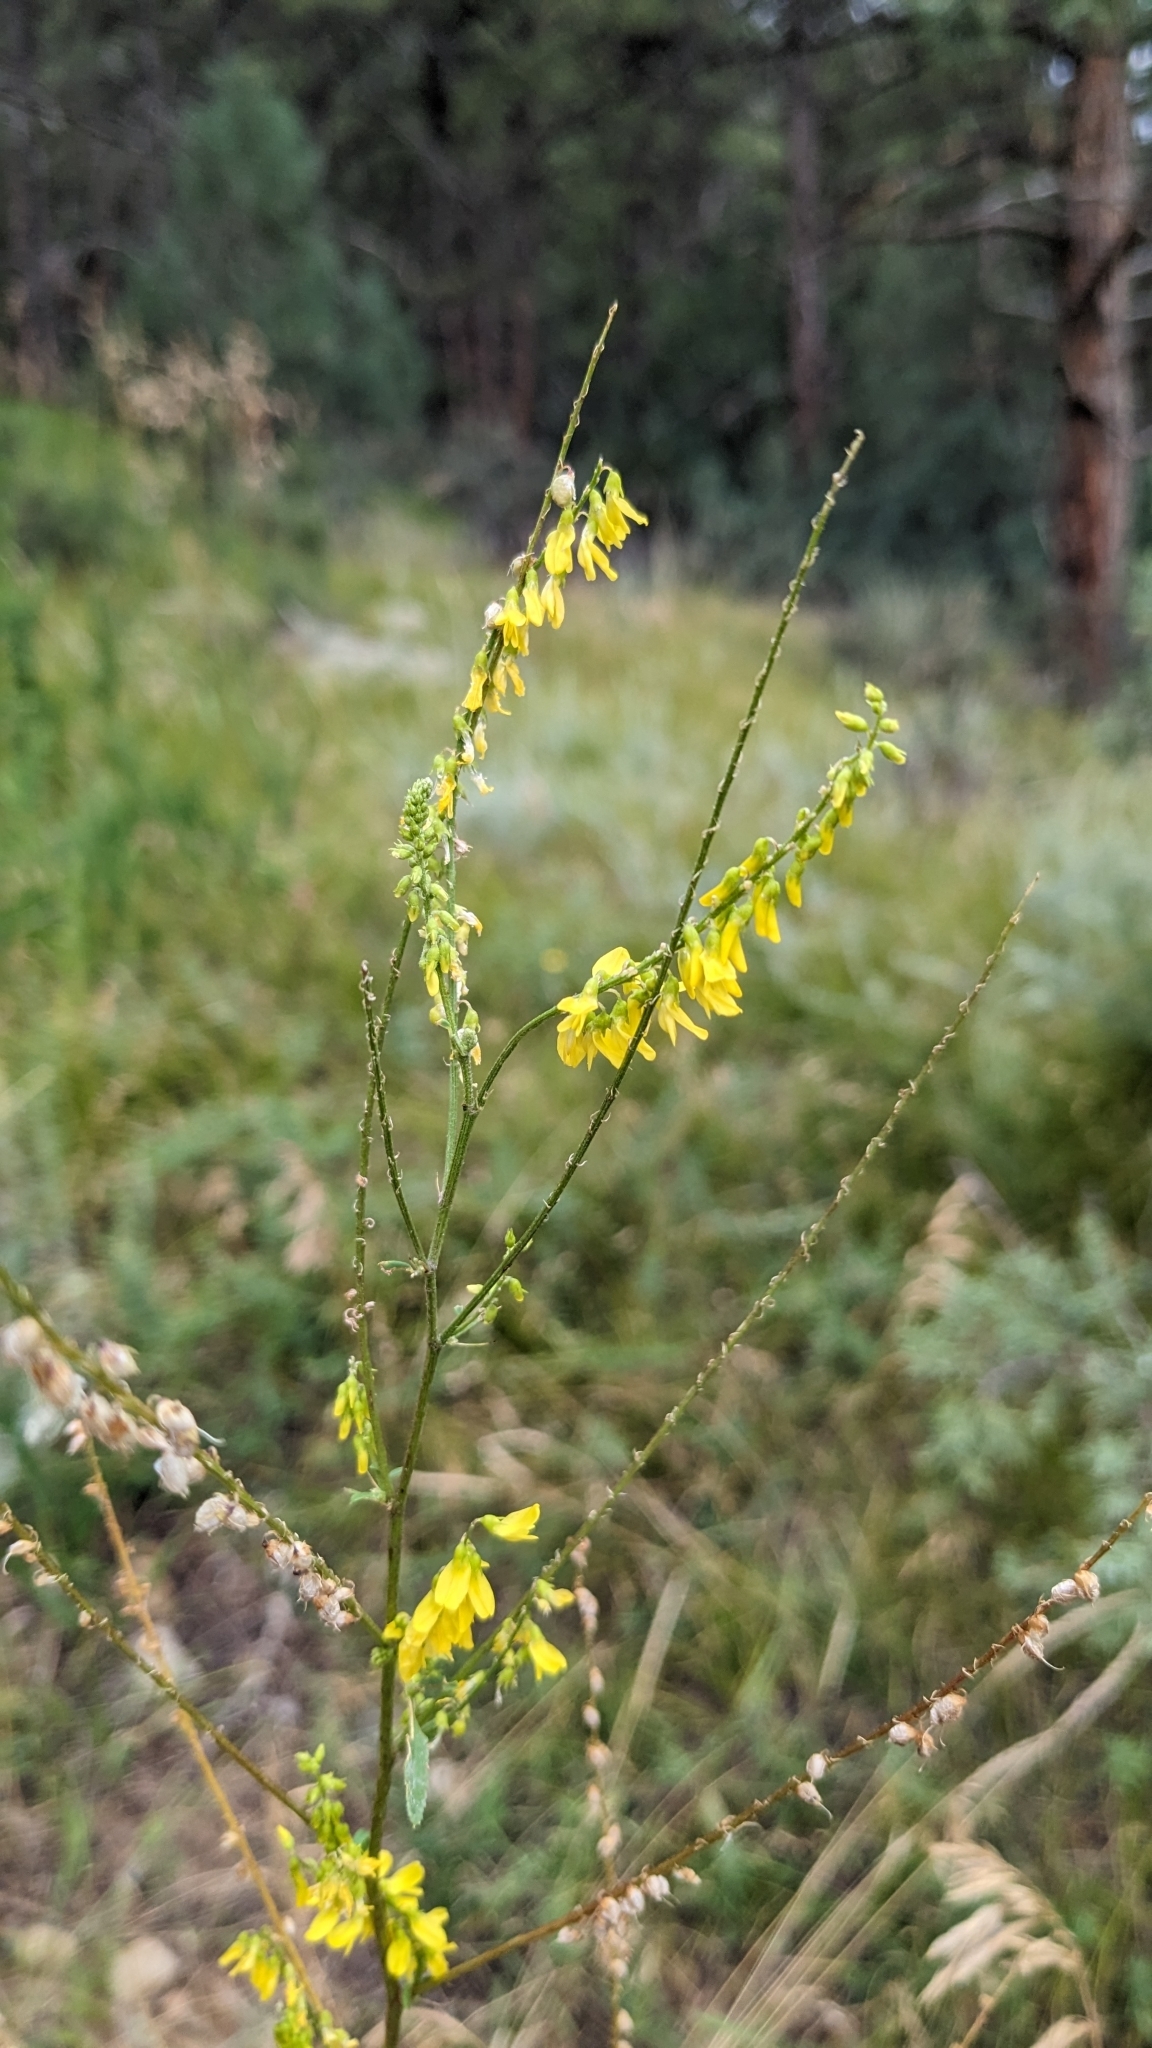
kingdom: Plantae
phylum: Tracheophyta
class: Magnoliopsida
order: Fabales
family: Fabaceae
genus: Melilotus
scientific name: Melilotus officinalis
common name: Sweetclover
